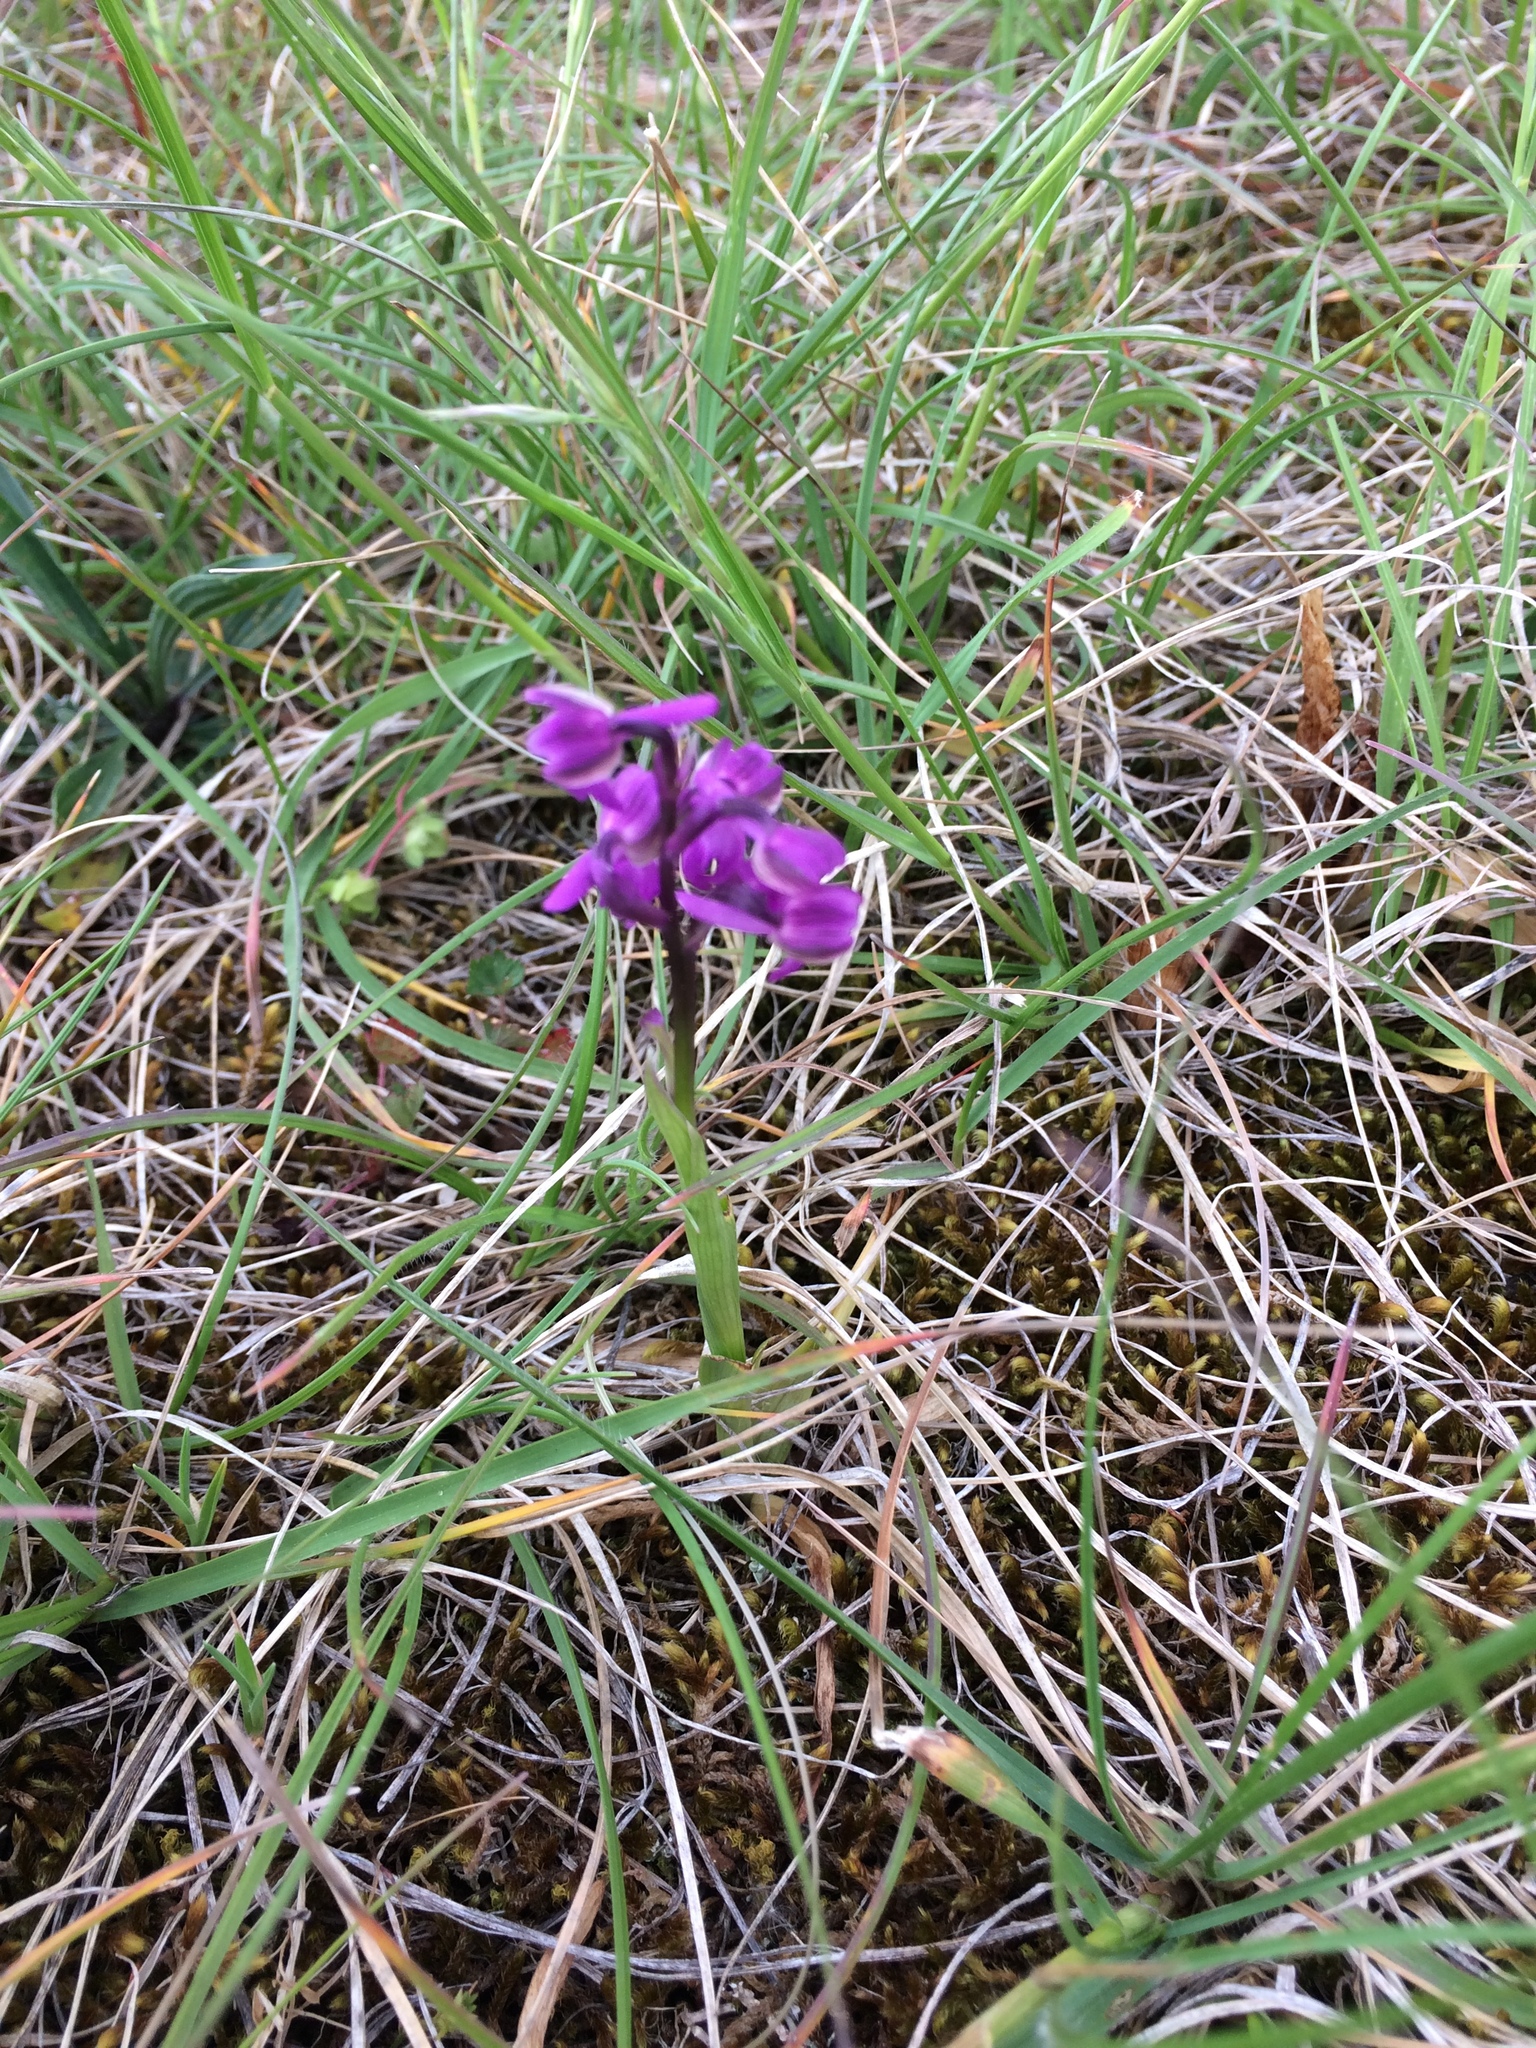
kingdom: Plantae
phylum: Tracheophyta
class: Liliopsida
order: Asparagales
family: Orchidaceae
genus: Anacamptis
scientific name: Anacamptis morio
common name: Green-winged orchid
